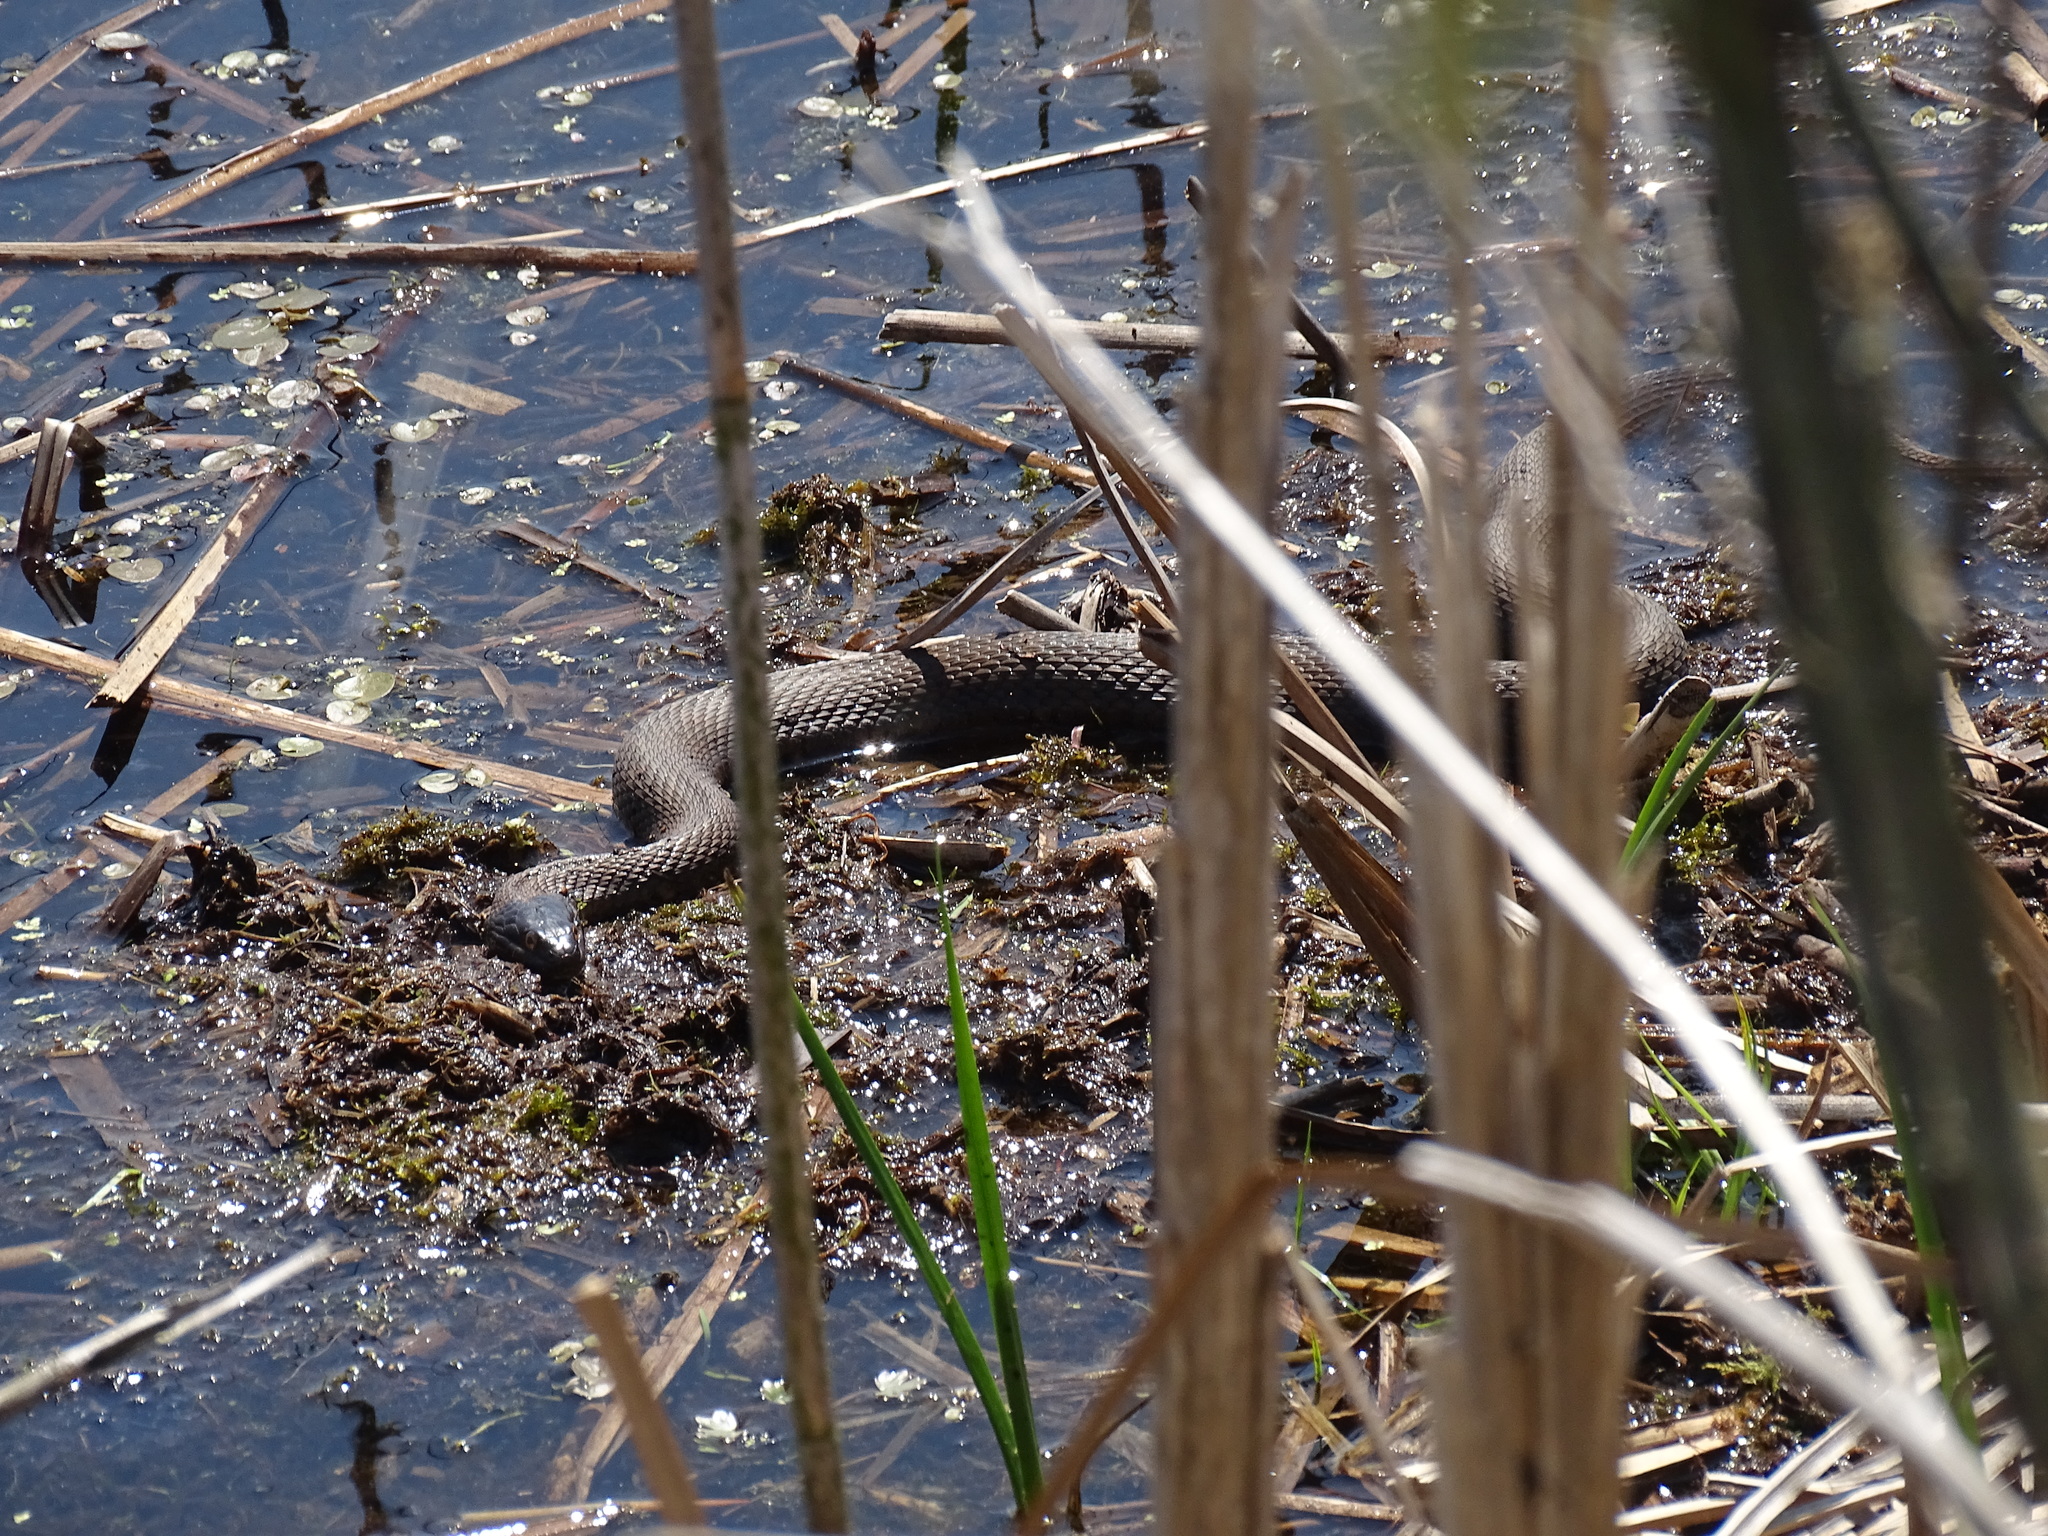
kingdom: Animalia
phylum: Chordata
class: Squamata
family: Colubridae
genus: Nerodia
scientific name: Nerodia sipedon
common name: Northern water snake
